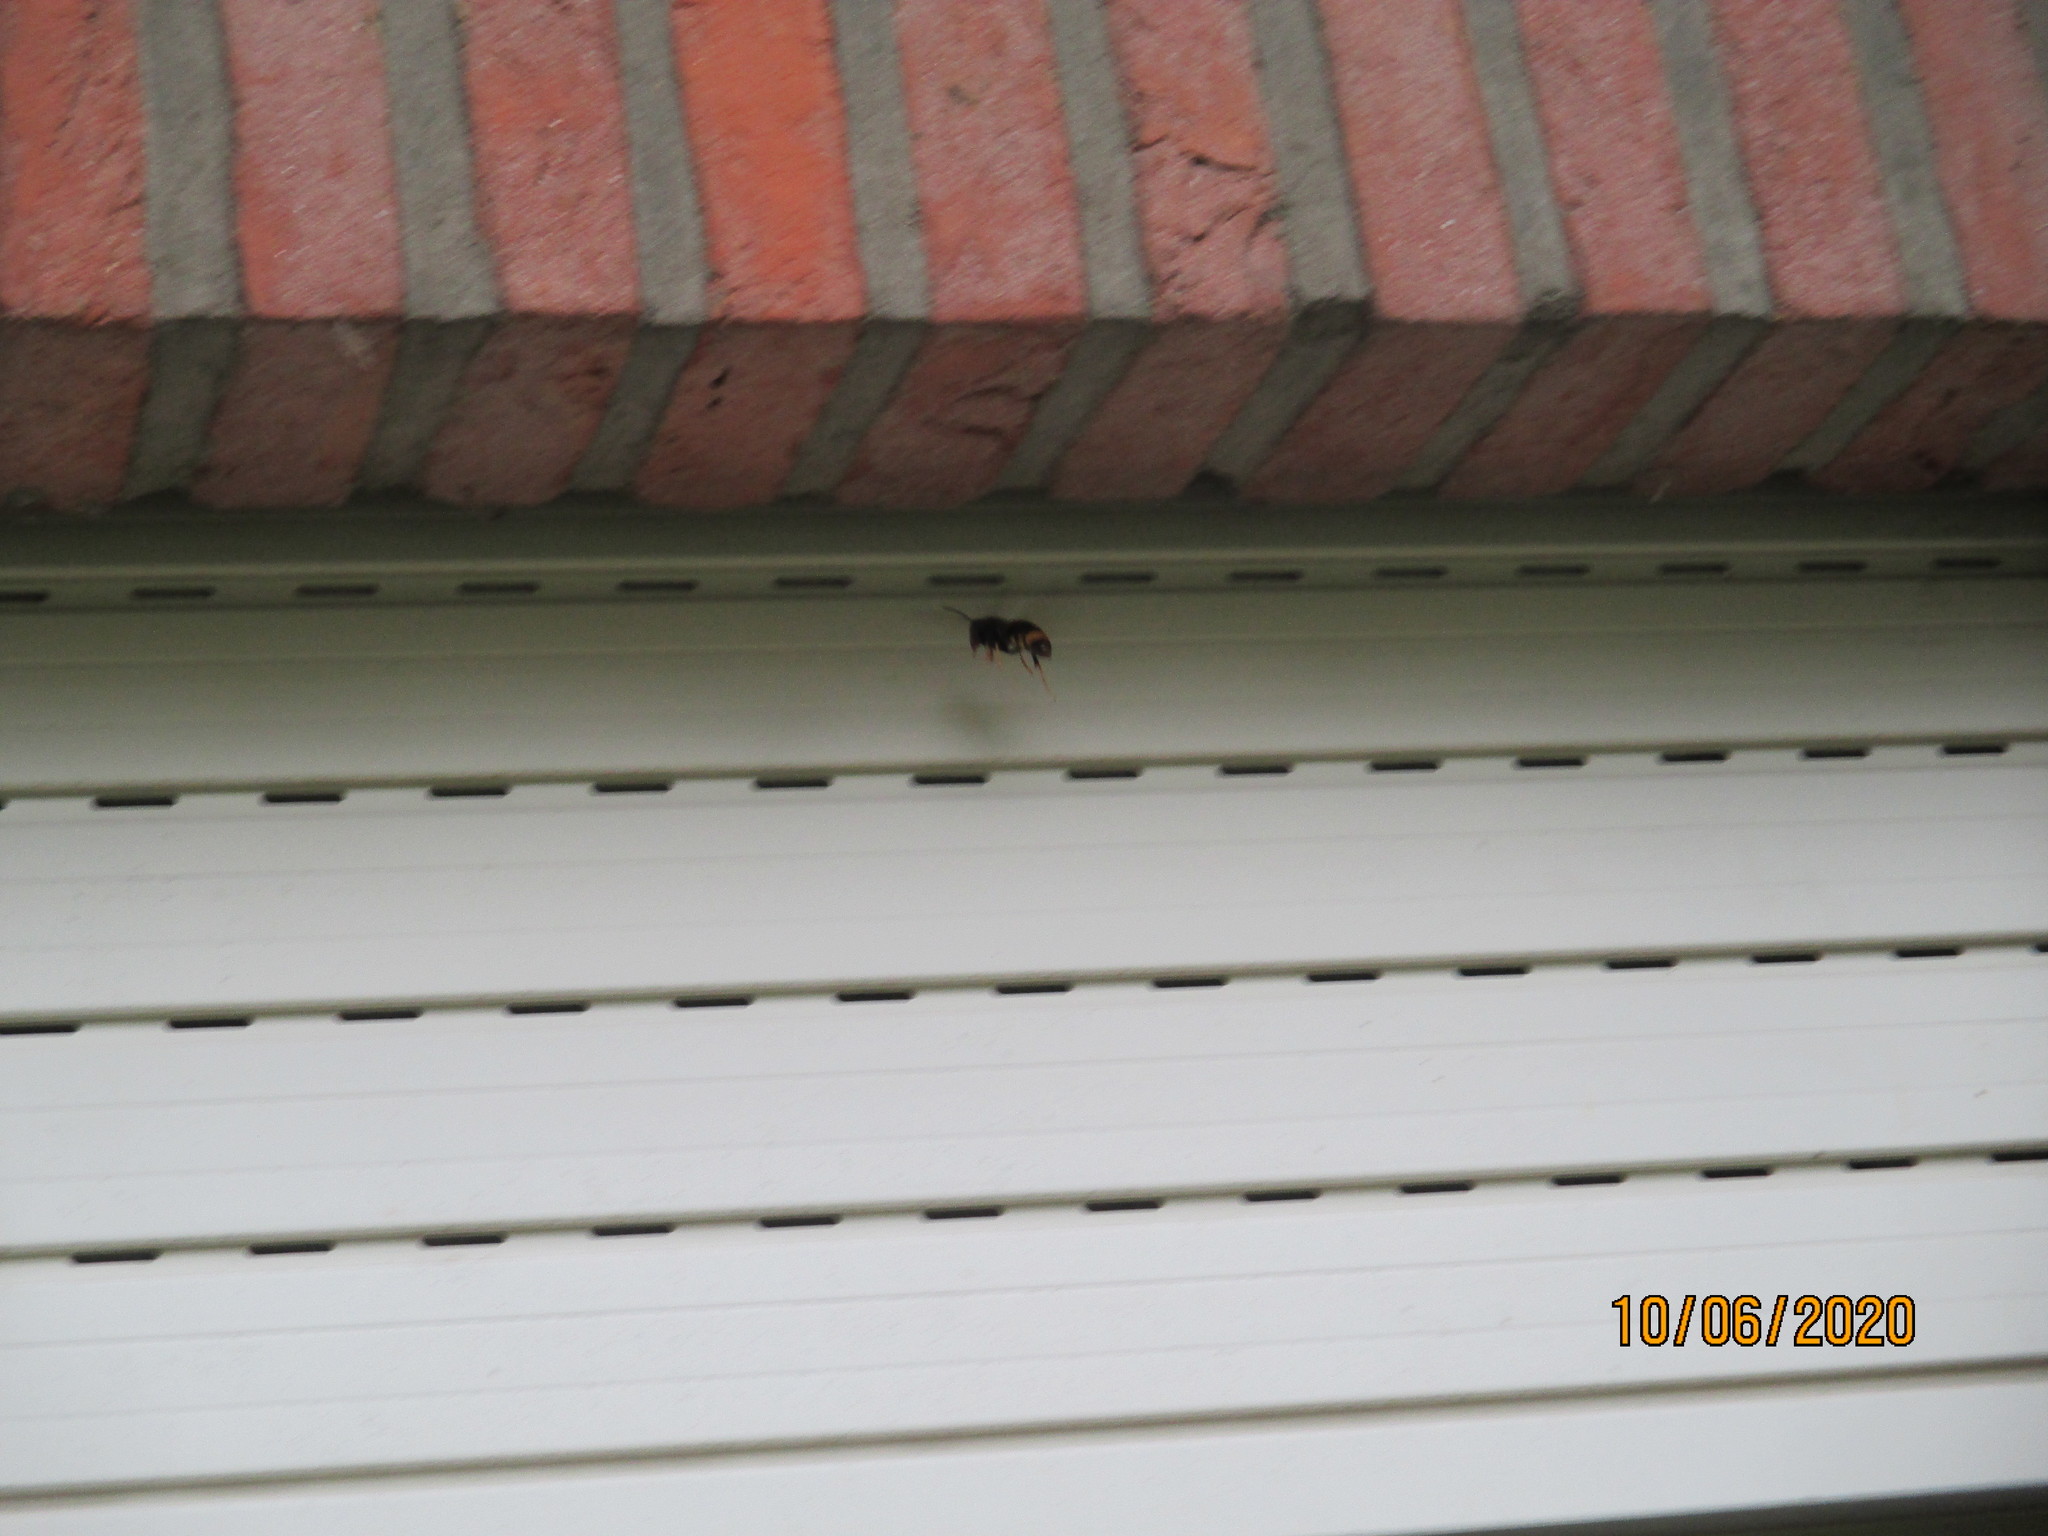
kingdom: Animalia
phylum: Arthropoda
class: Insecta
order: Hymenoptera
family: Vespidae
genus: Vespa
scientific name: Vespa velutina
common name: Asian hornet
